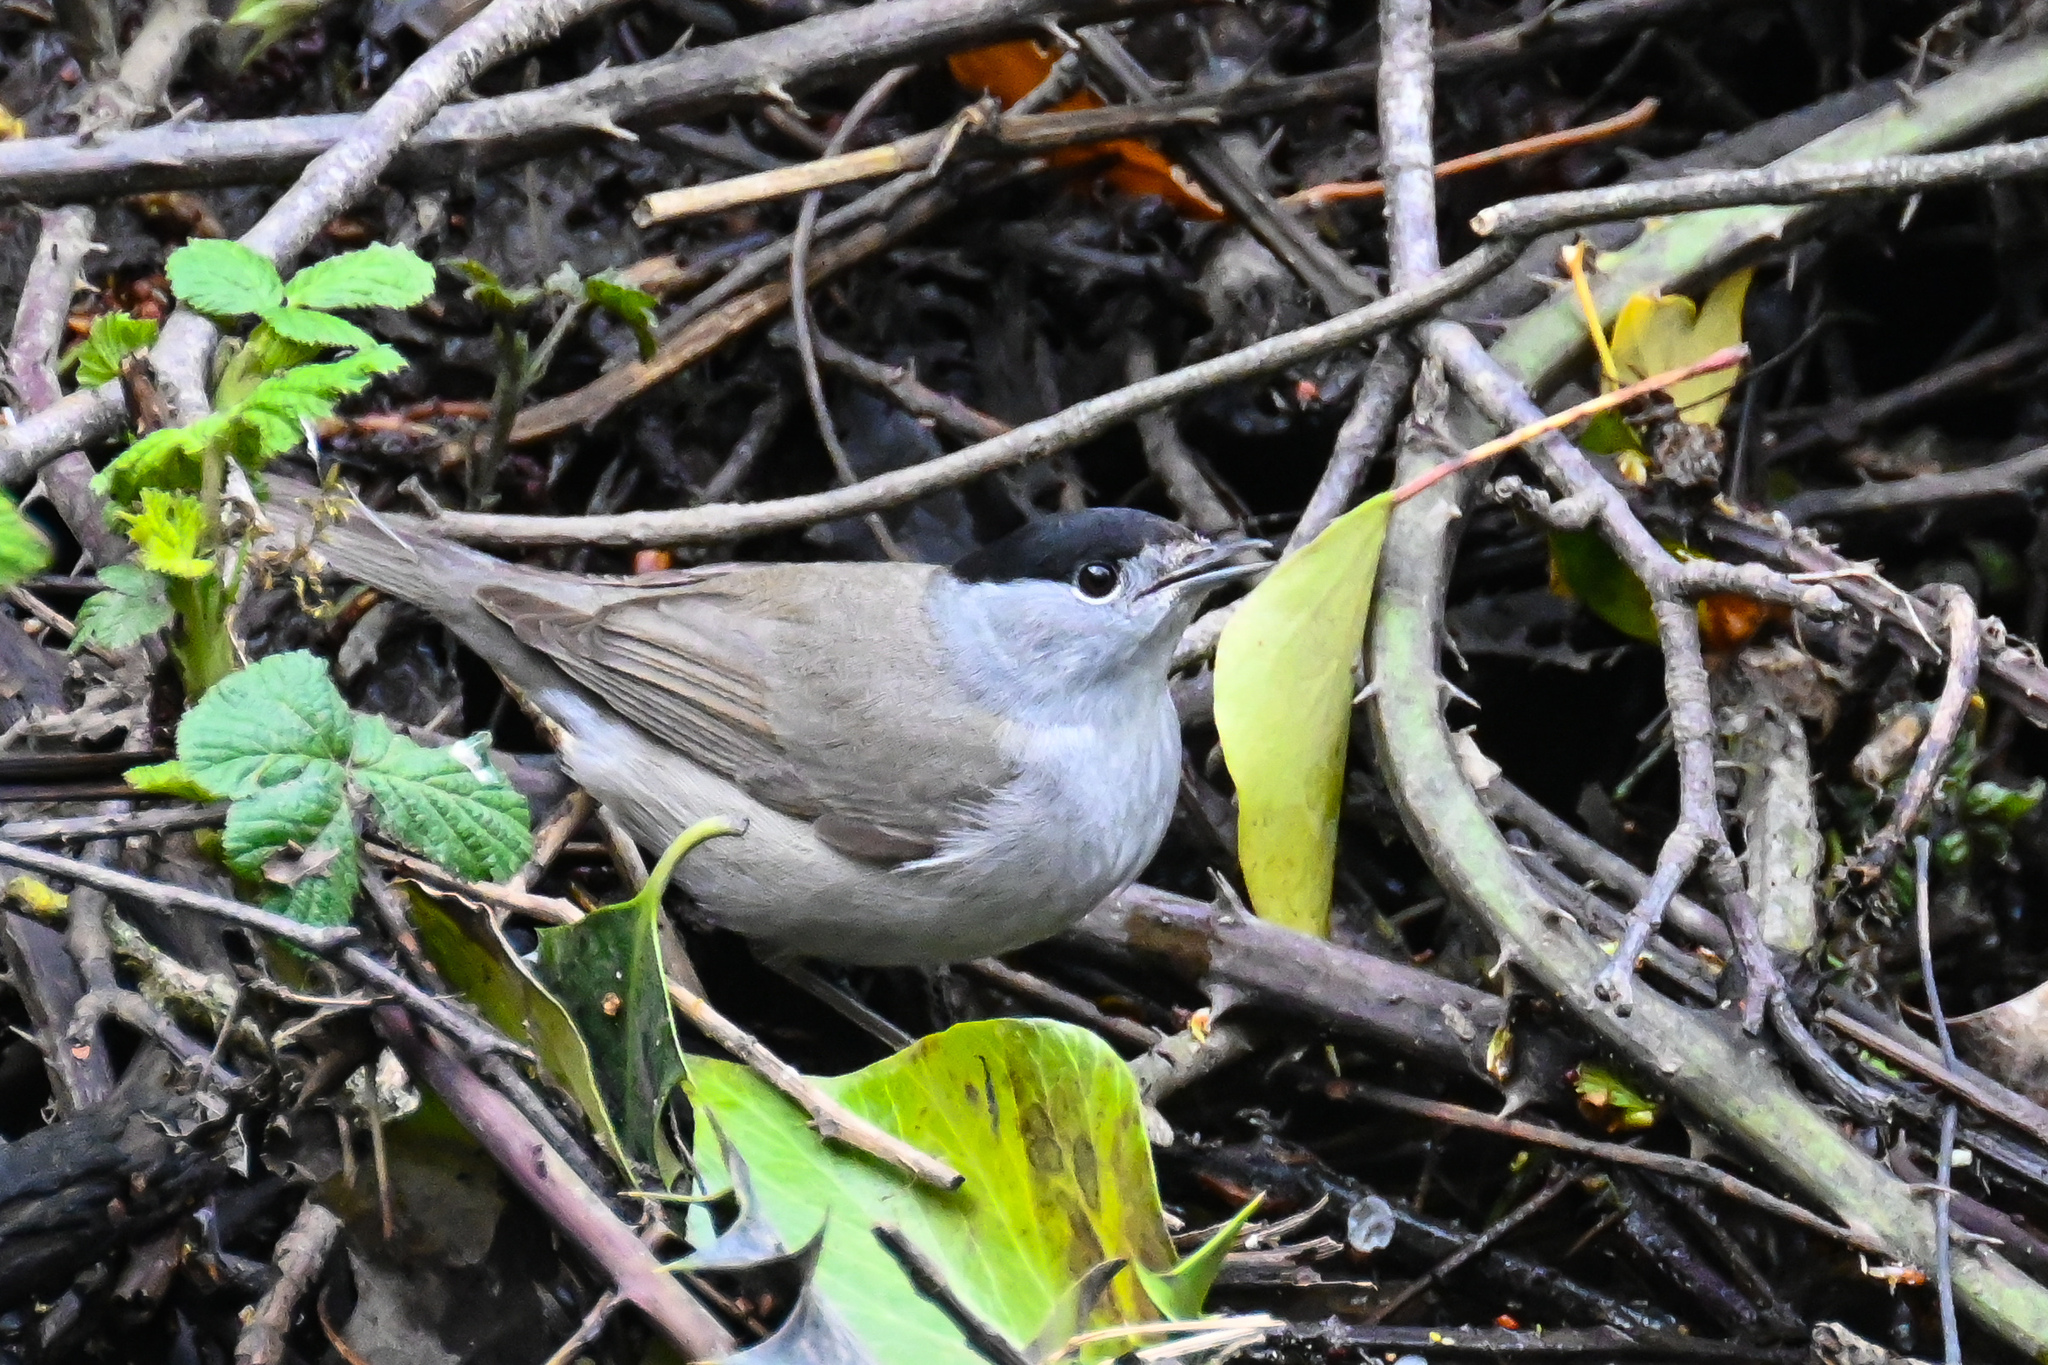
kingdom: Animalia
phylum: Chordata
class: Aves
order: Passeriformes
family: Sylviidae
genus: Sylvia
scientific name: Sylvia atricapilla
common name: Eurasian blackcap
